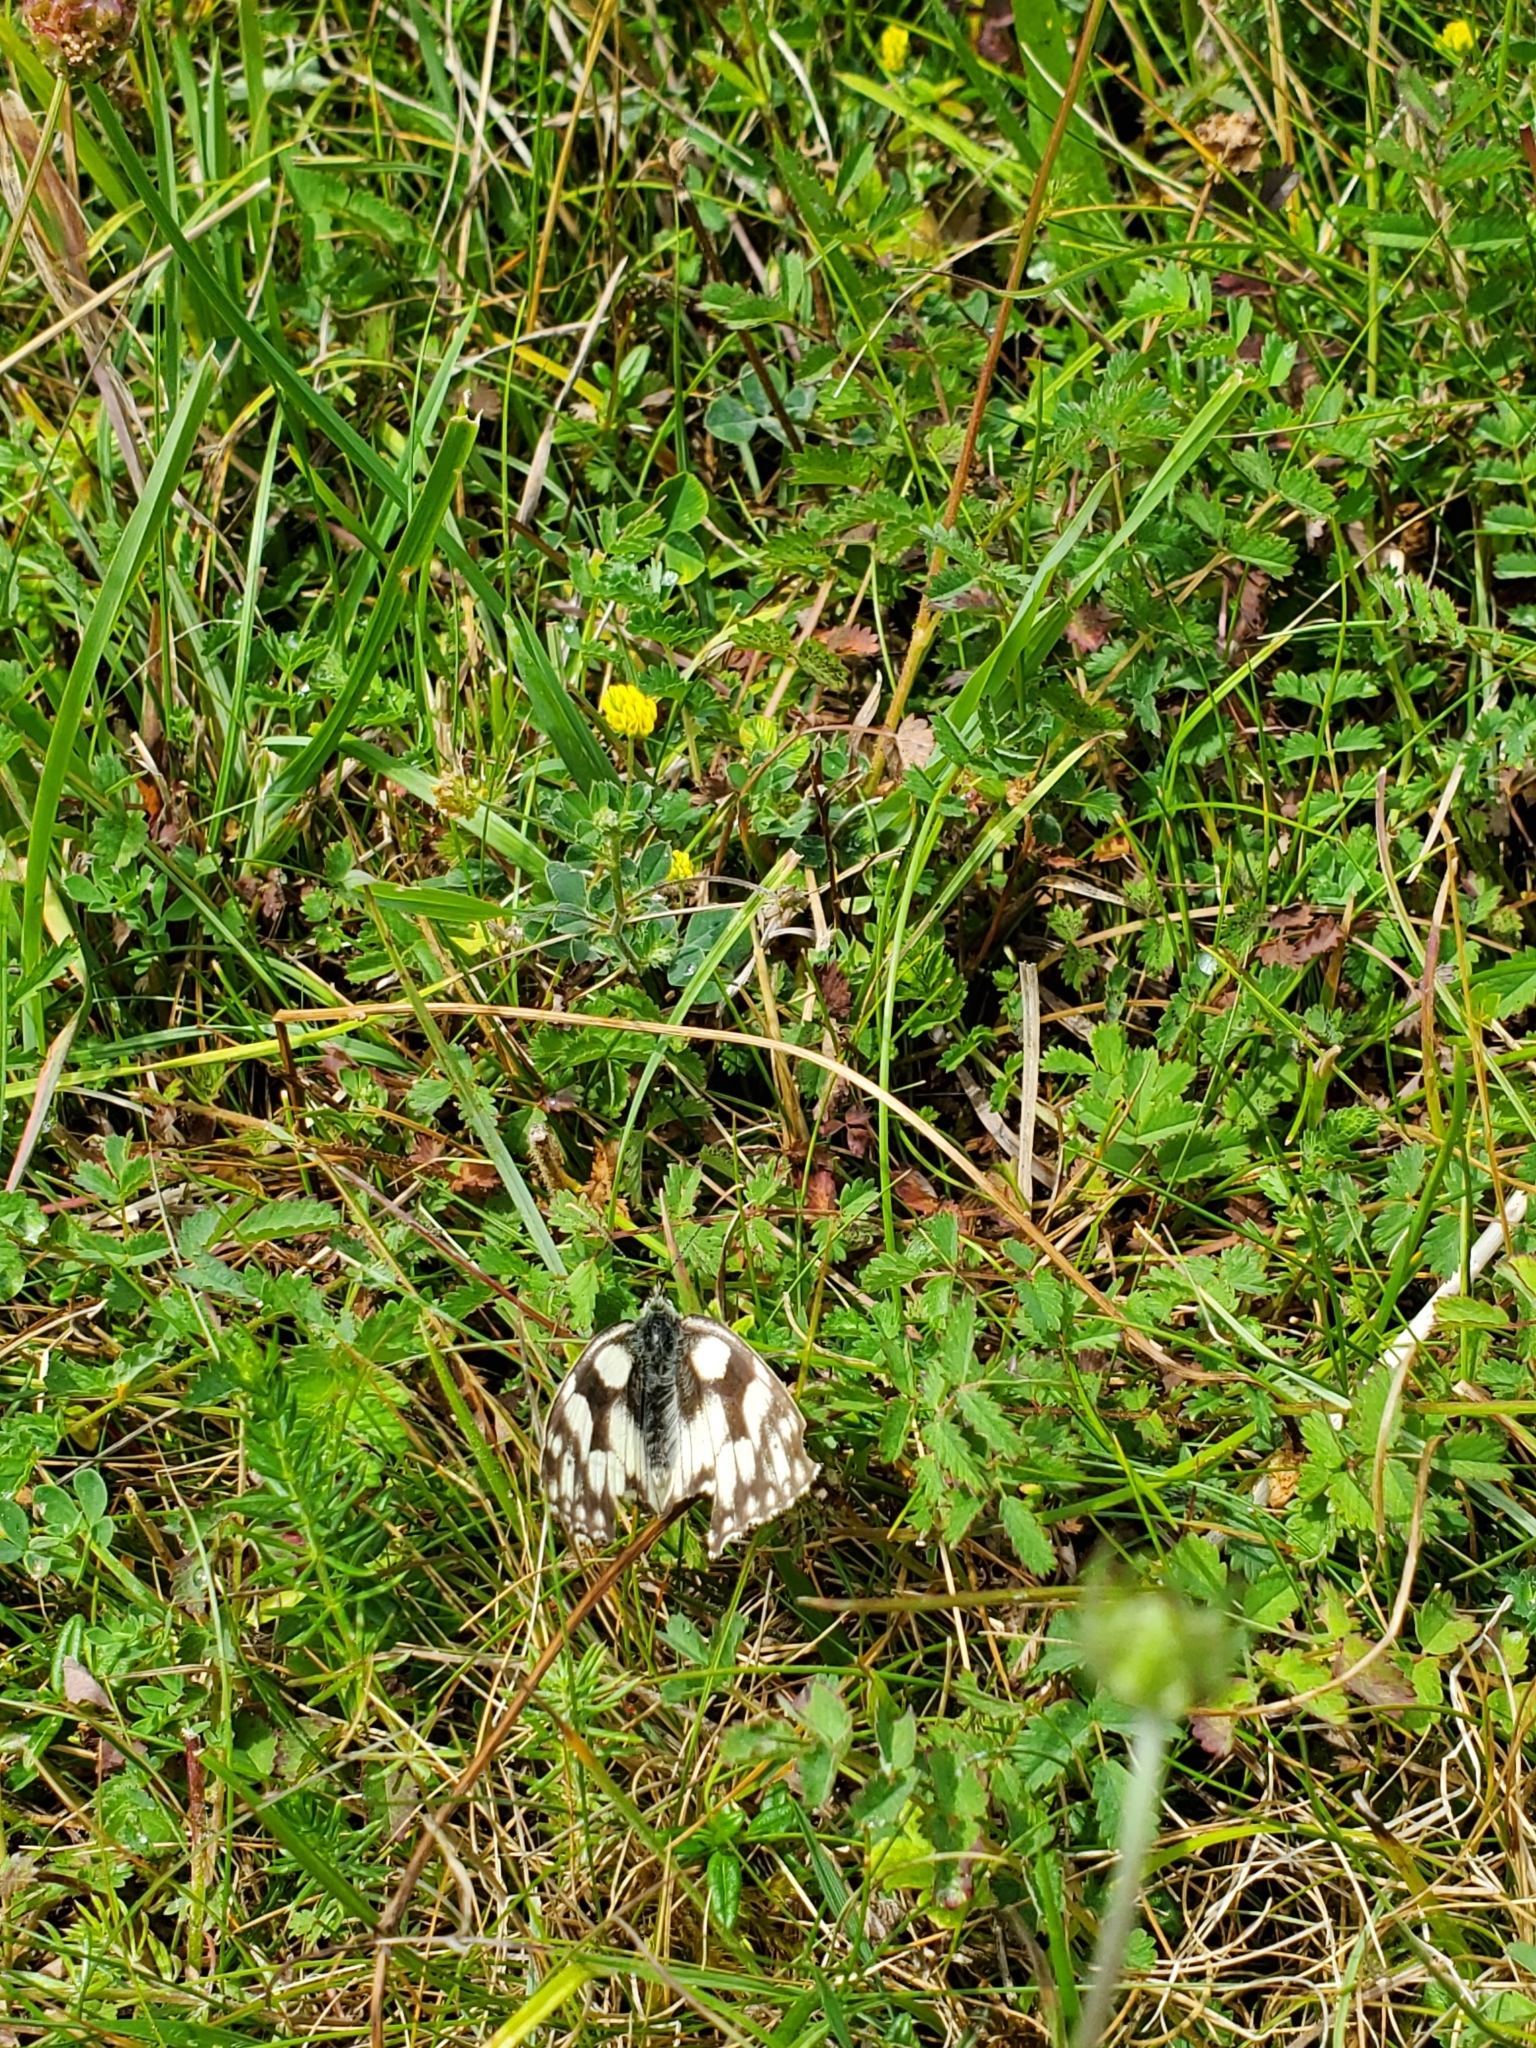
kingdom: Animalia
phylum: Arthropoda
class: Insecta
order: Lepidoptera
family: Nymphalidae
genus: Melanargia
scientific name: Melanargia galathea
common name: Marbled white
